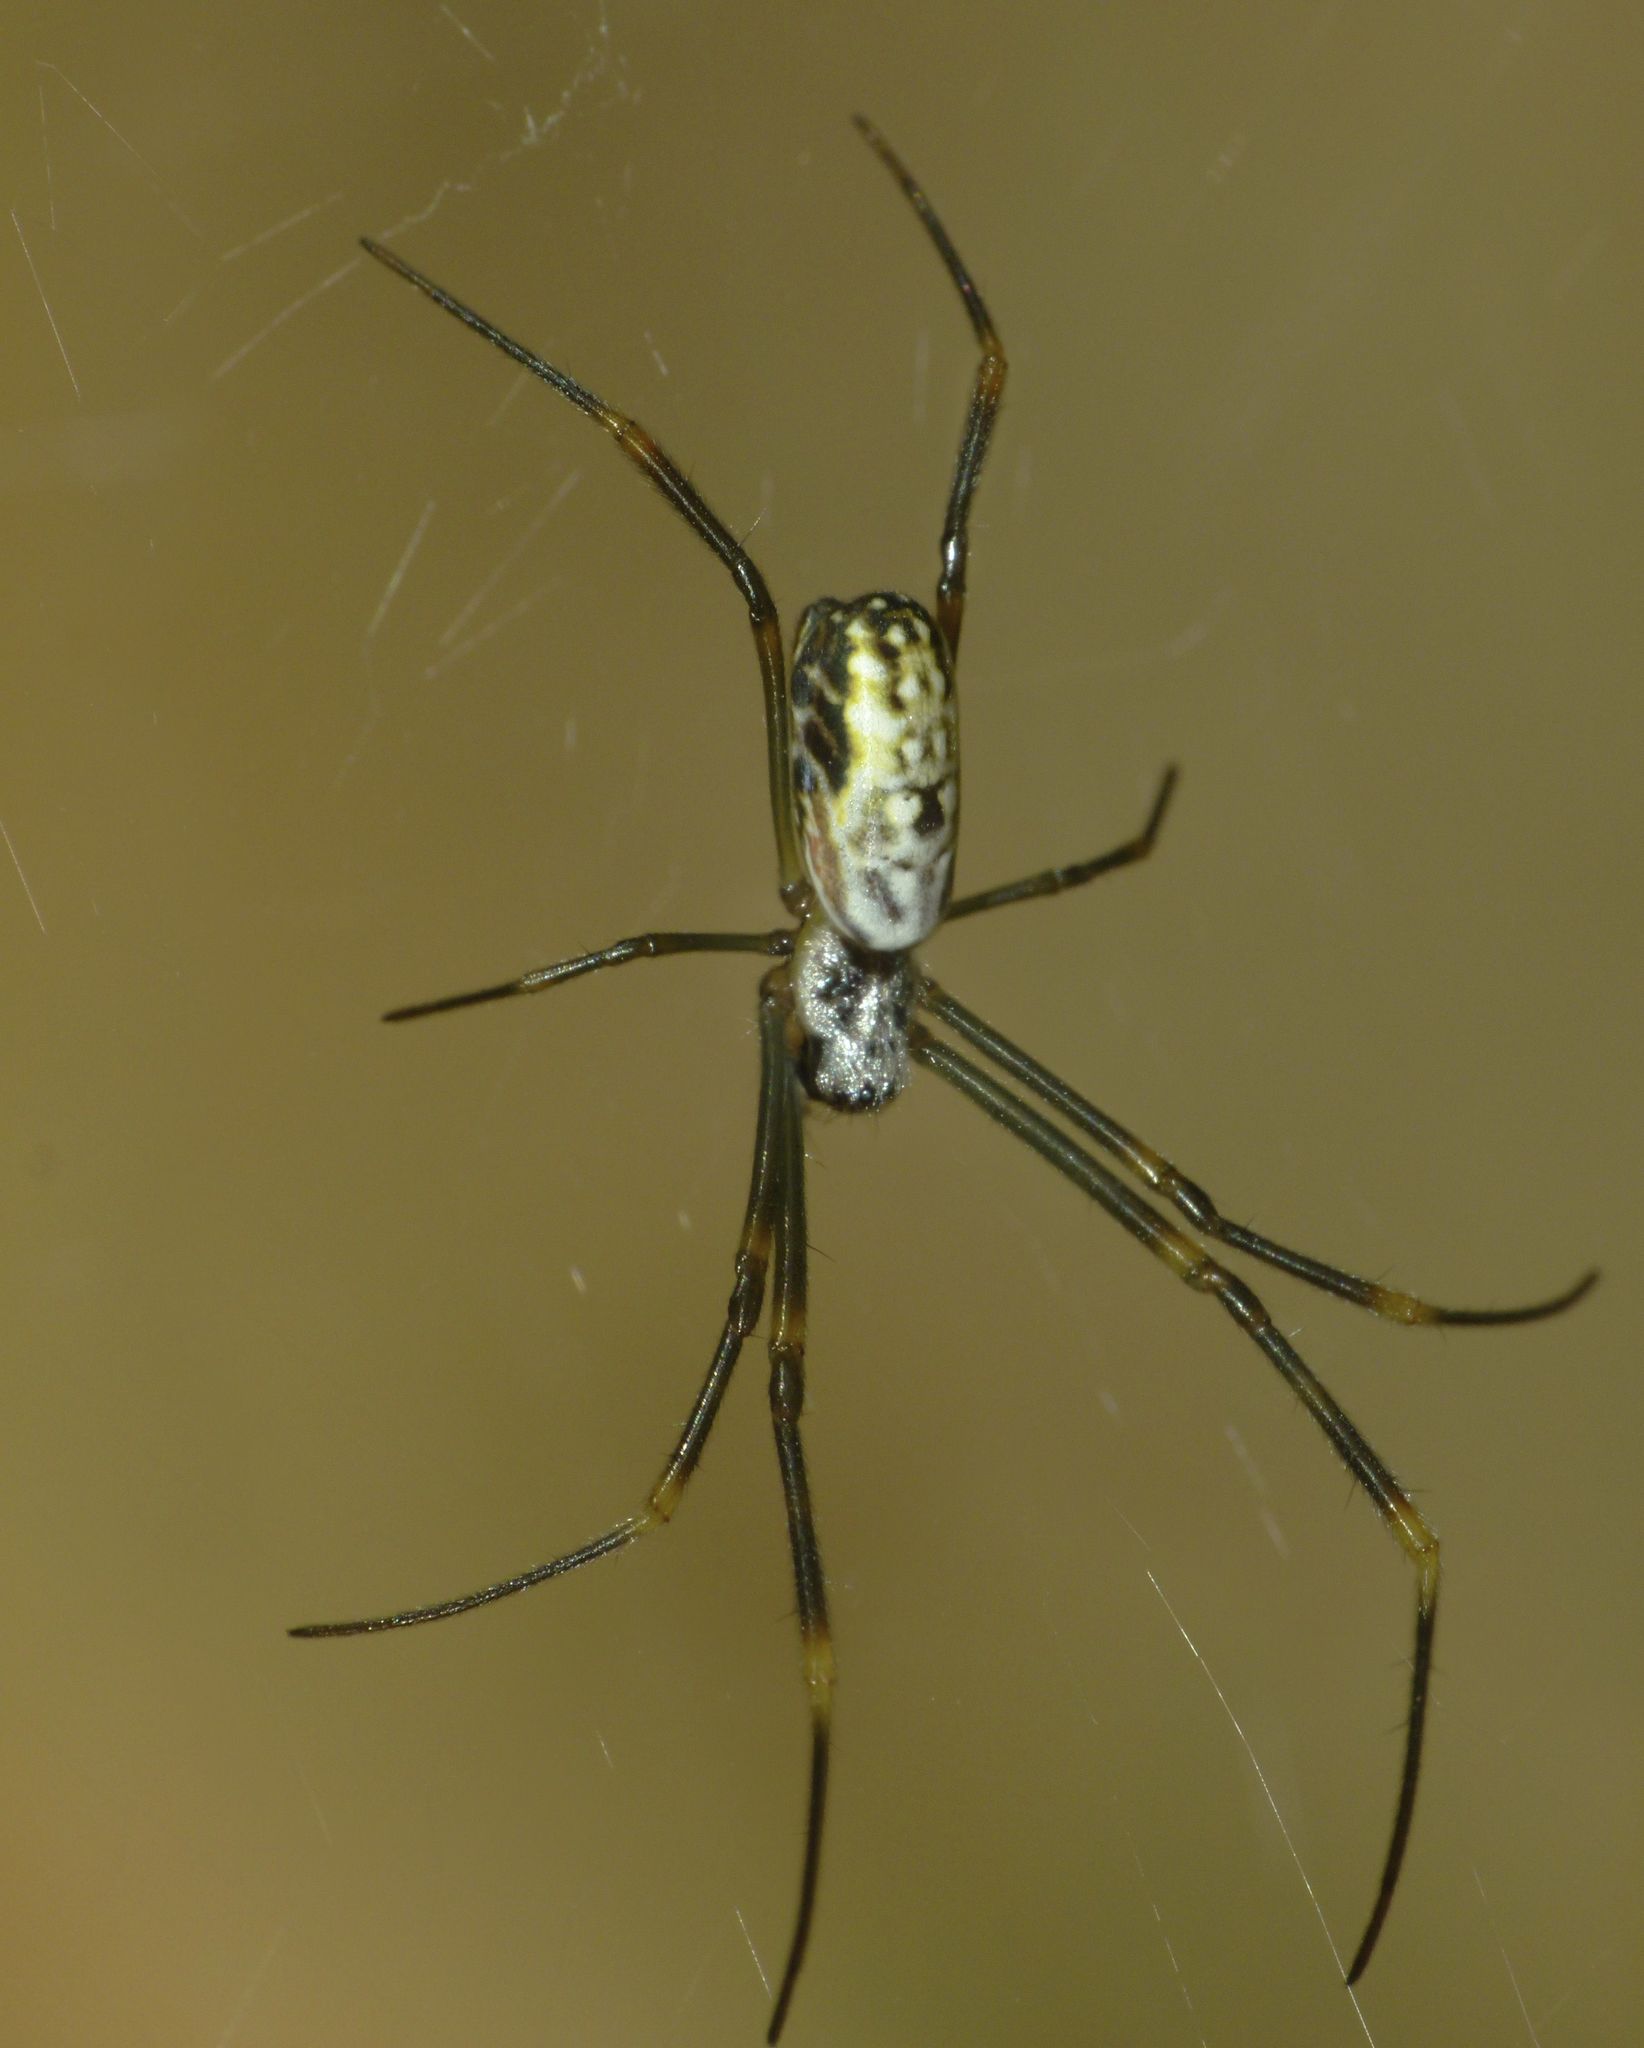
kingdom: Animalia
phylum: Arthropoda
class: Arachnida
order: Araneae
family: Araneidae
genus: Trichonephila
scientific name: Trichonephila plumipes
